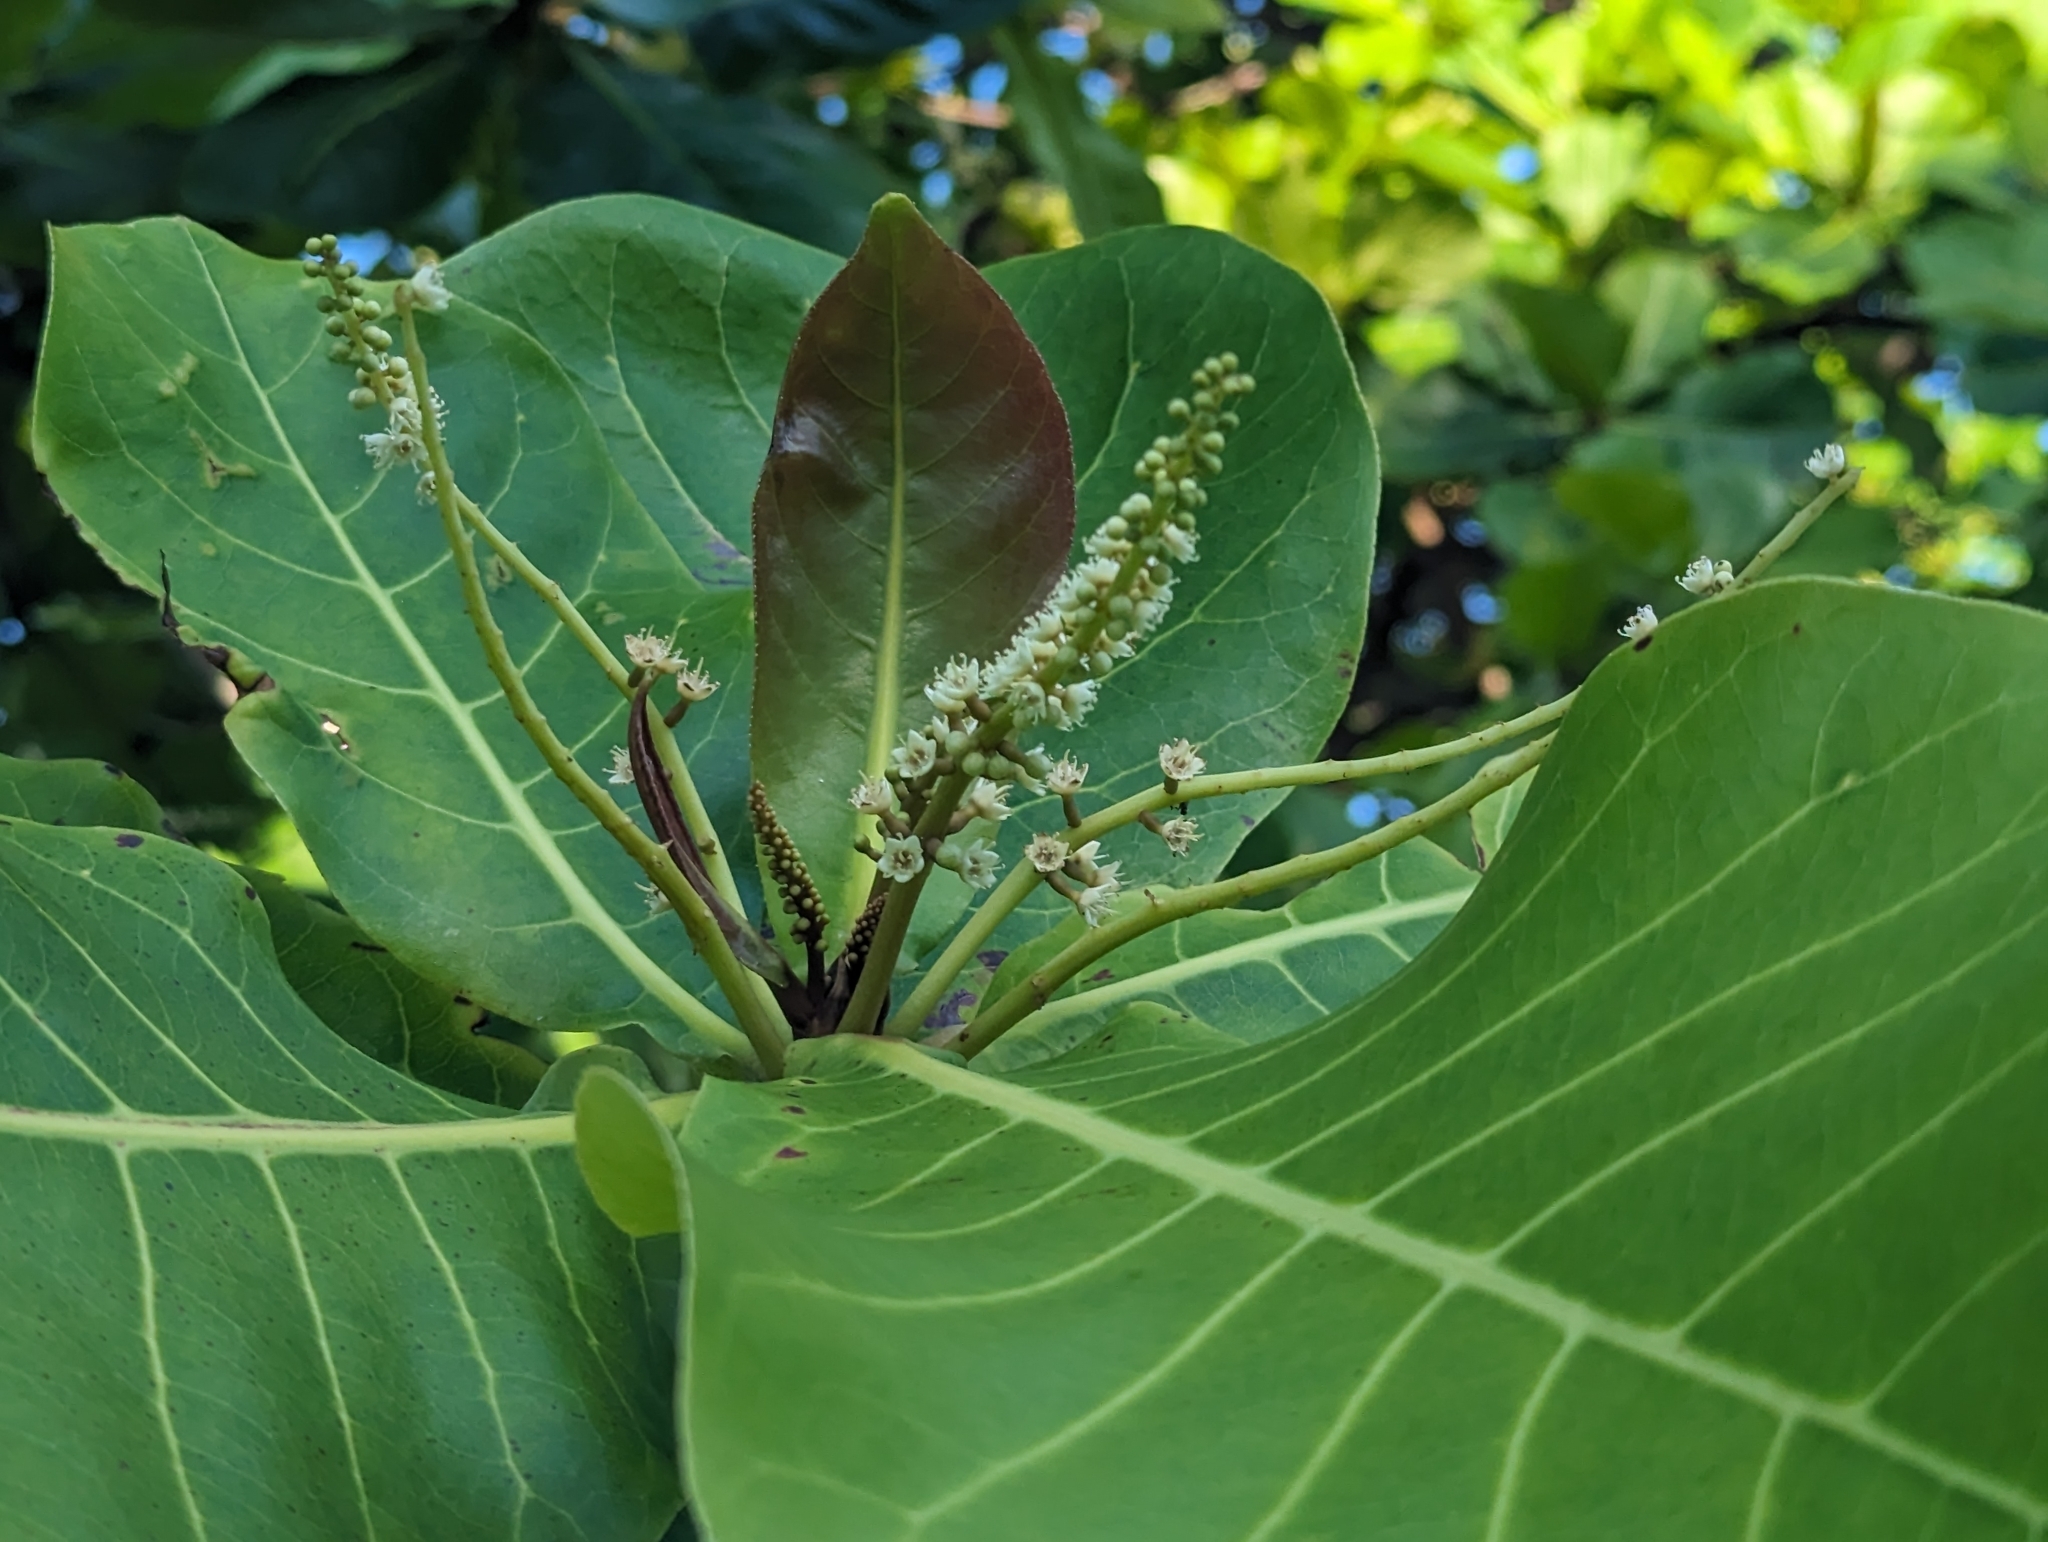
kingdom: Plantae
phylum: Tracheophyta
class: Magnoliopsida
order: Myrtales
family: Combretaceae
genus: Terminalia
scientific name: Terminalia catappa
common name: Tropical almond
